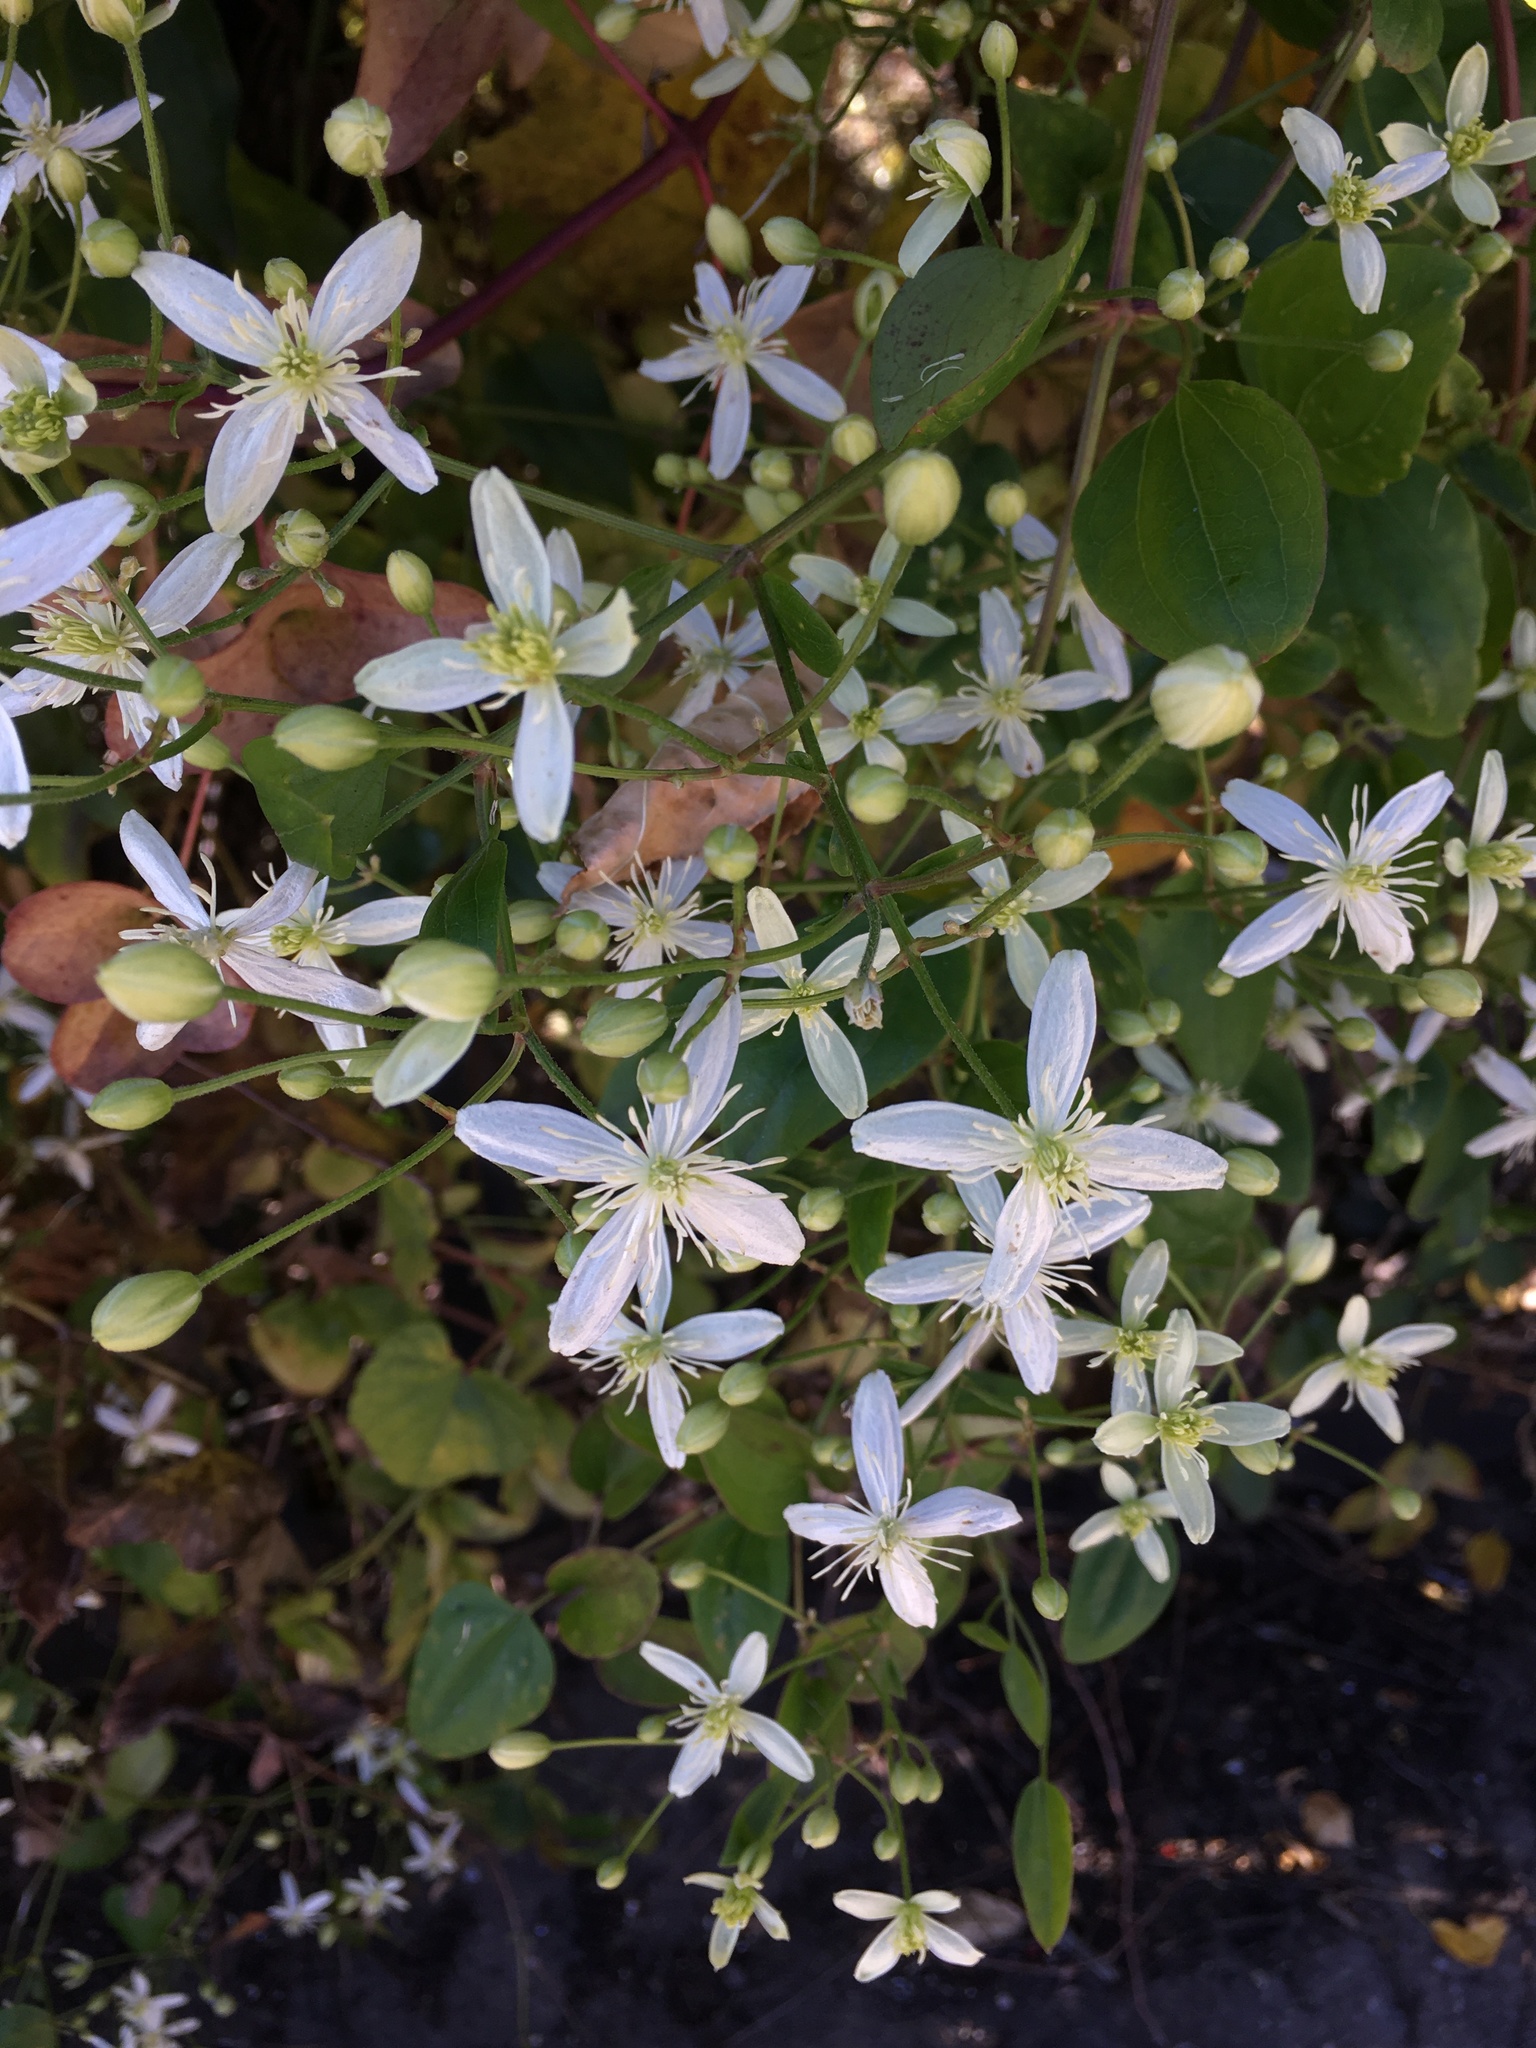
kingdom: Plantae
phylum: Tracheophyta
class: Magnoliopsida
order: Ranunculales
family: Ranunculaceae
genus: Clematis
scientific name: Clematis terniflora
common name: Sweet autumn clematis
